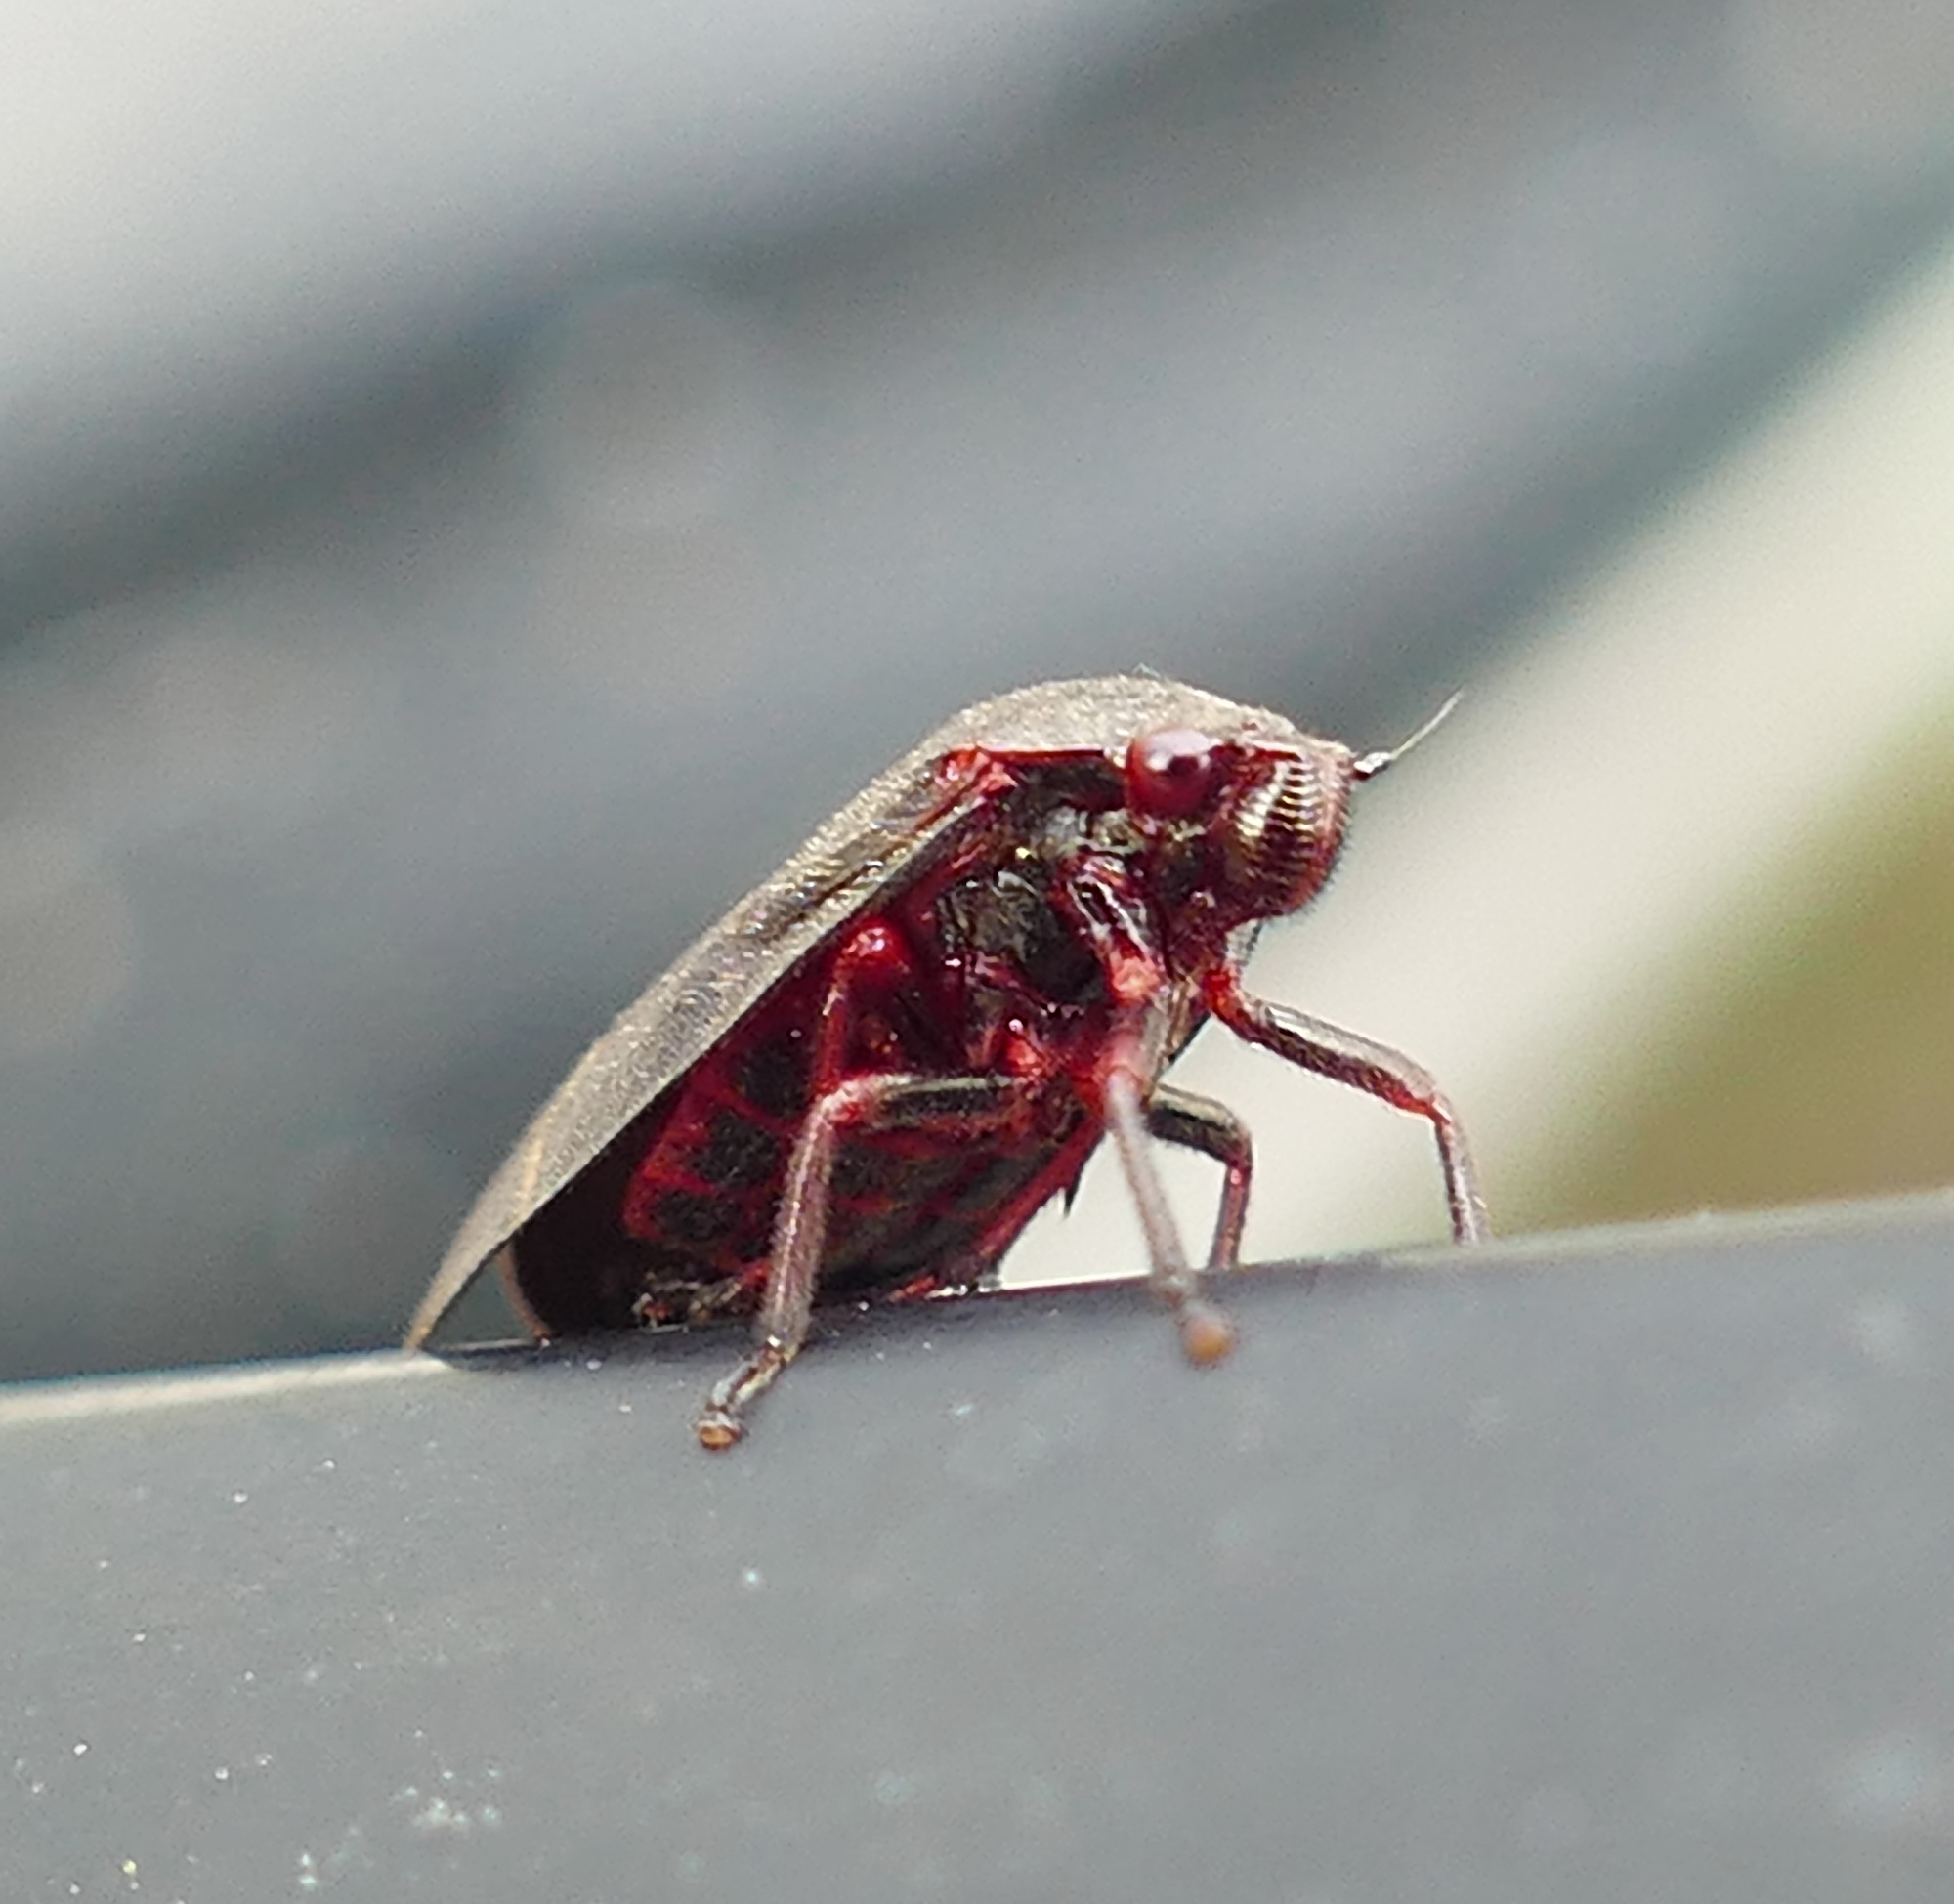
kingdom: Animalia
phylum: Arthropoda
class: Insecta
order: Hemiptera
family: Cercopidae
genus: Prosapia
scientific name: Prosapia bicincta
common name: Twolined spittlebug
